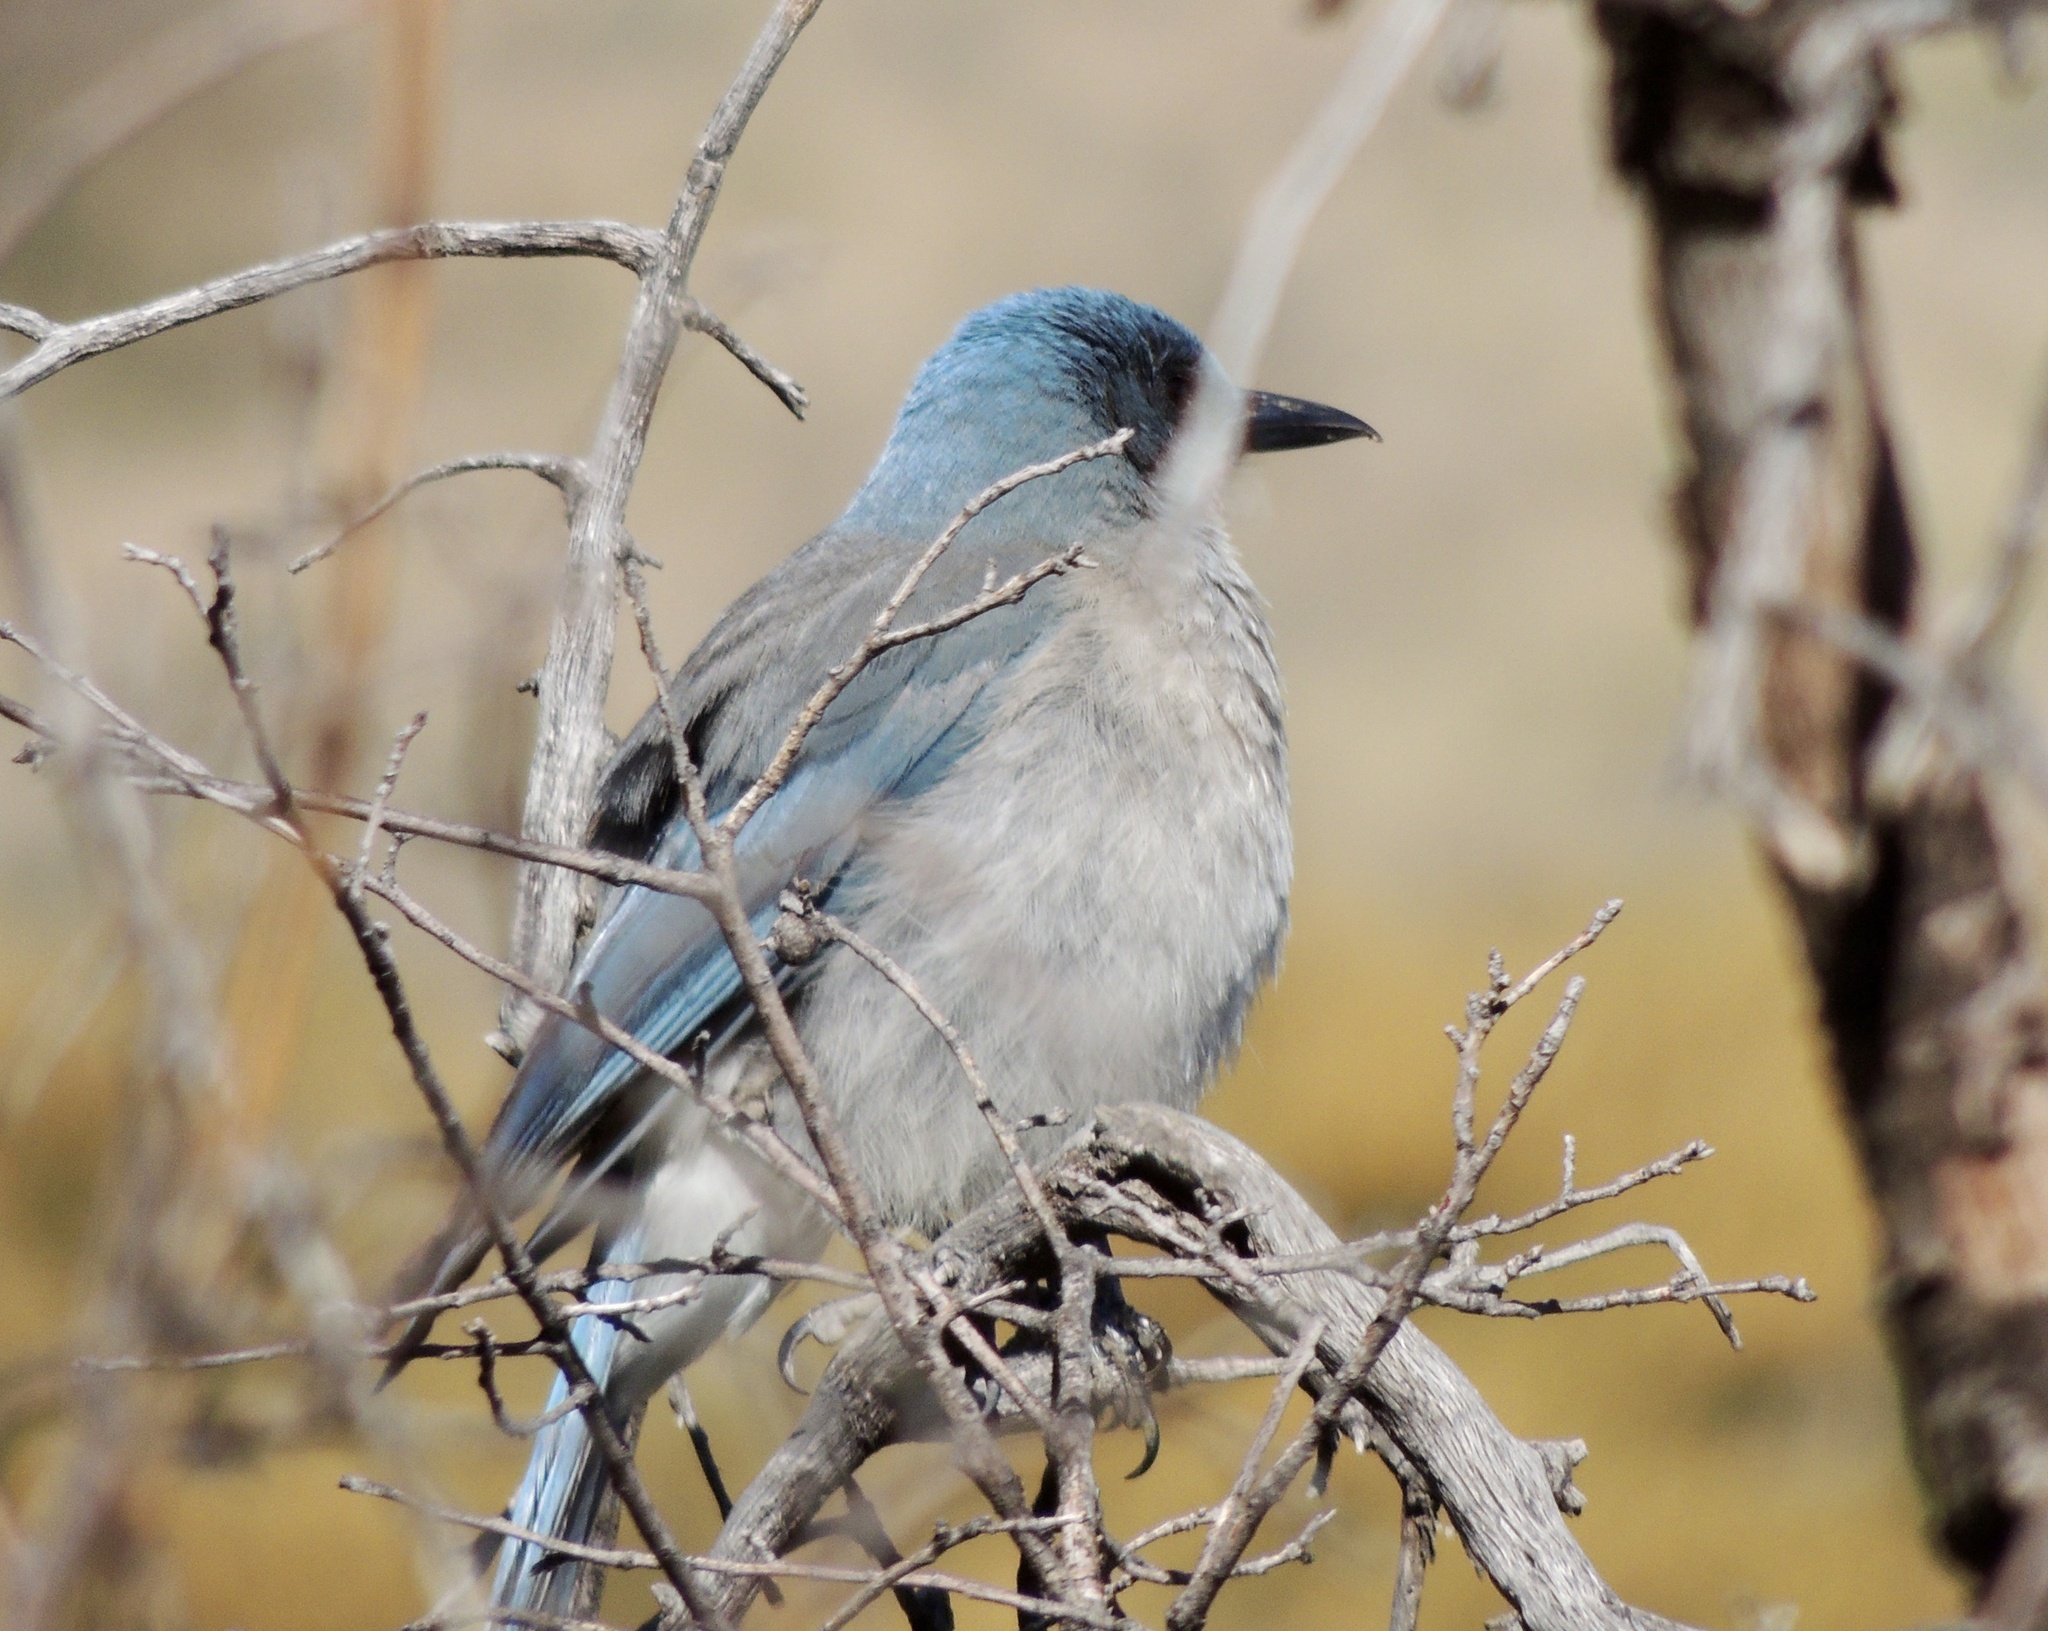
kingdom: Animalia
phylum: Chordata
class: Aves
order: Passeriformes
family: Corvidae
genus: Aphelocoma
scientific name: Aphelocoma wollweberi
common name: Mexican jay
